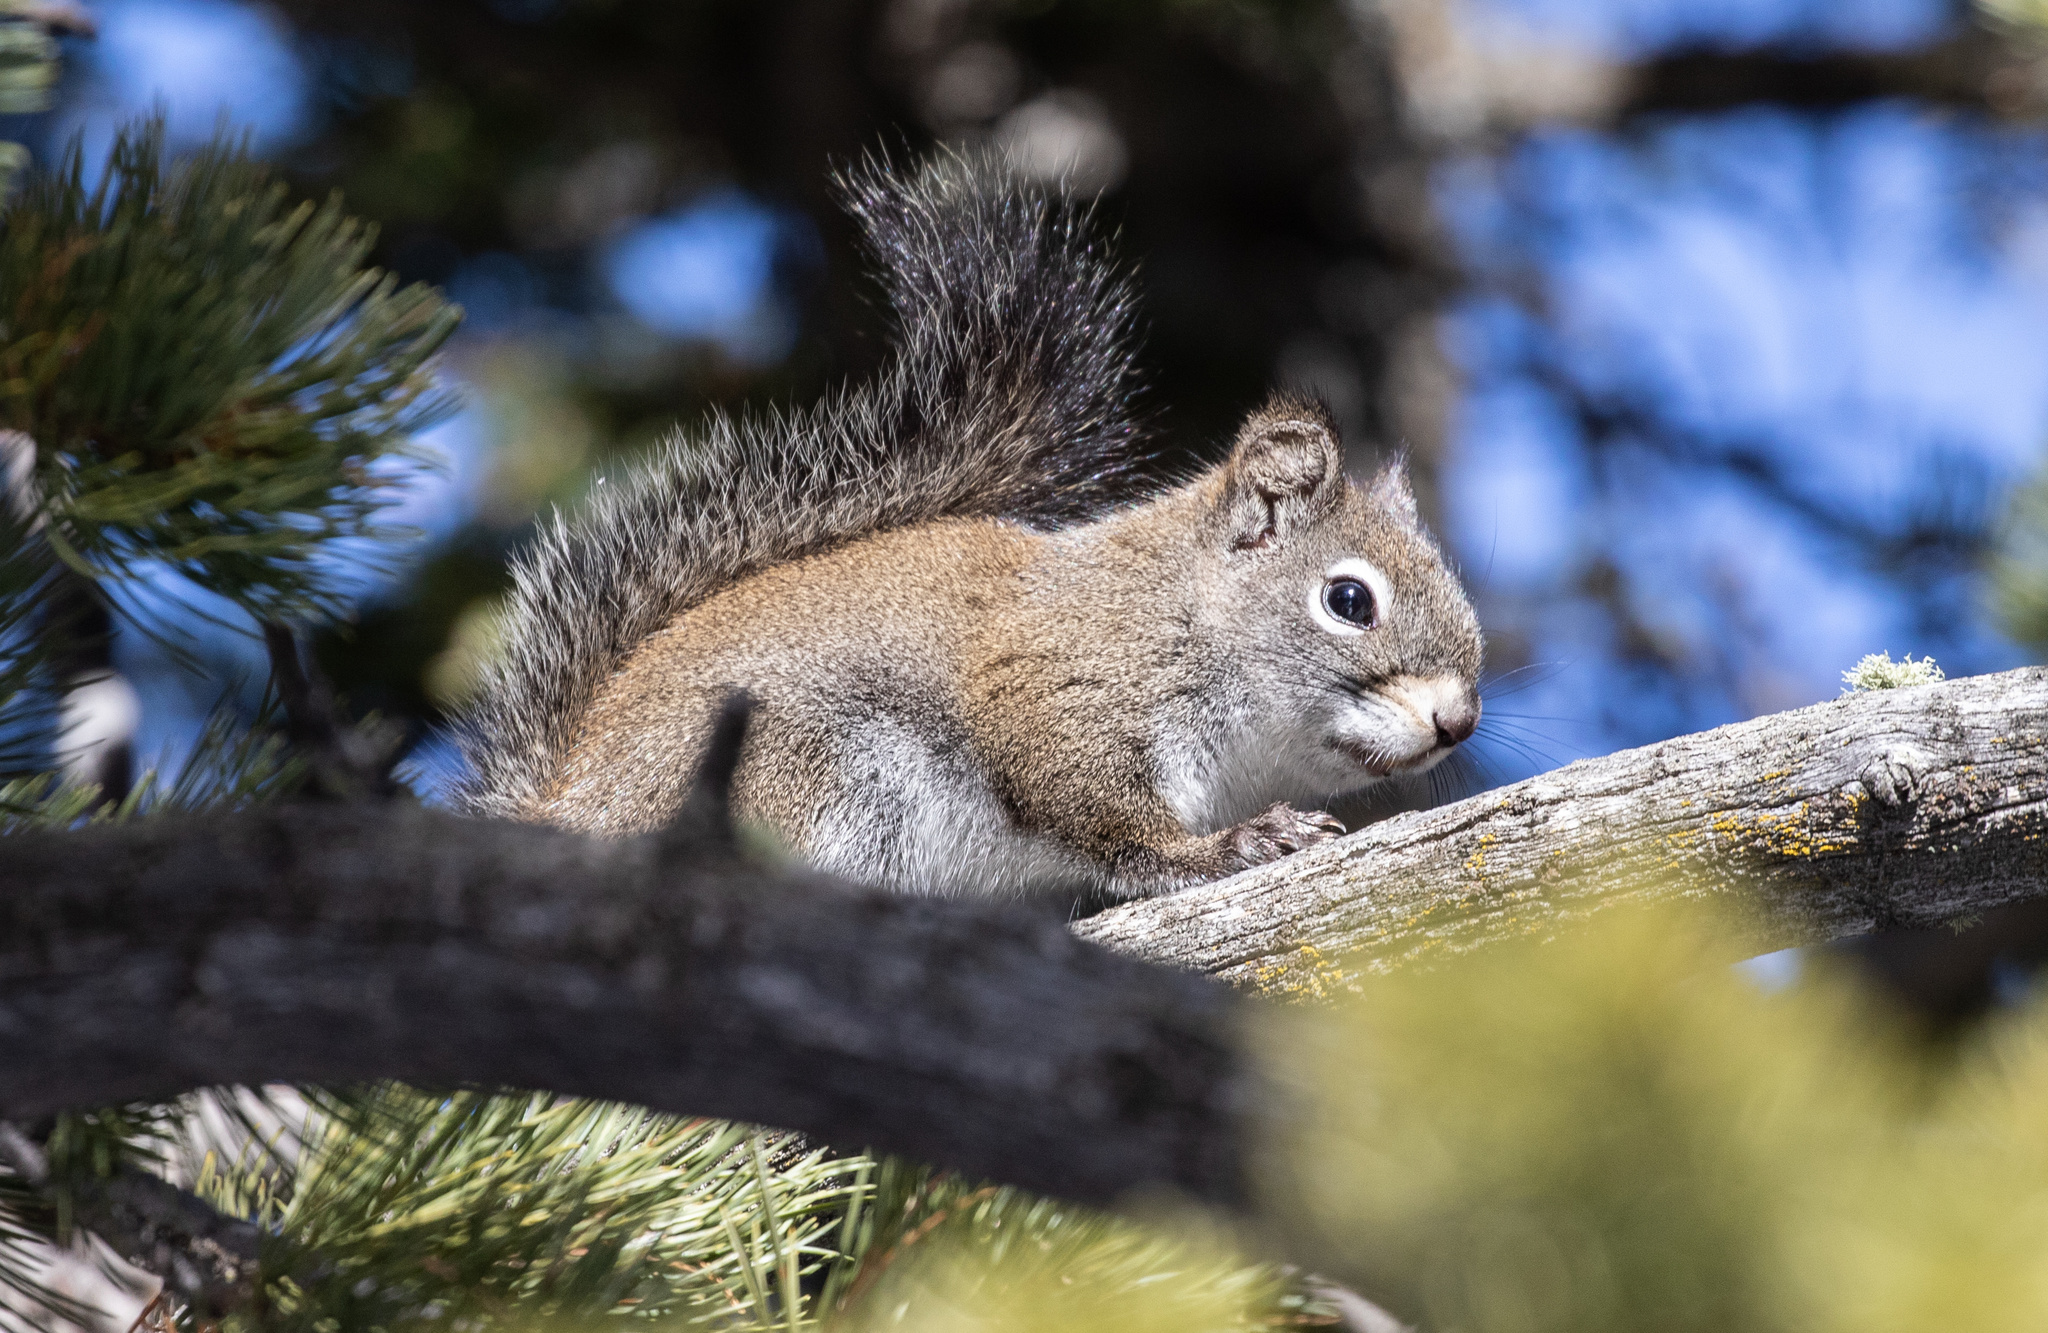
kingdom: Animalia
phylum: Chordata
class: Mammalia
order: Rodentia
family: Sciuridae
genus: Tamiasciurus
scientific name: Tamiasciurus hudsonicus
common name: Red squirrel
